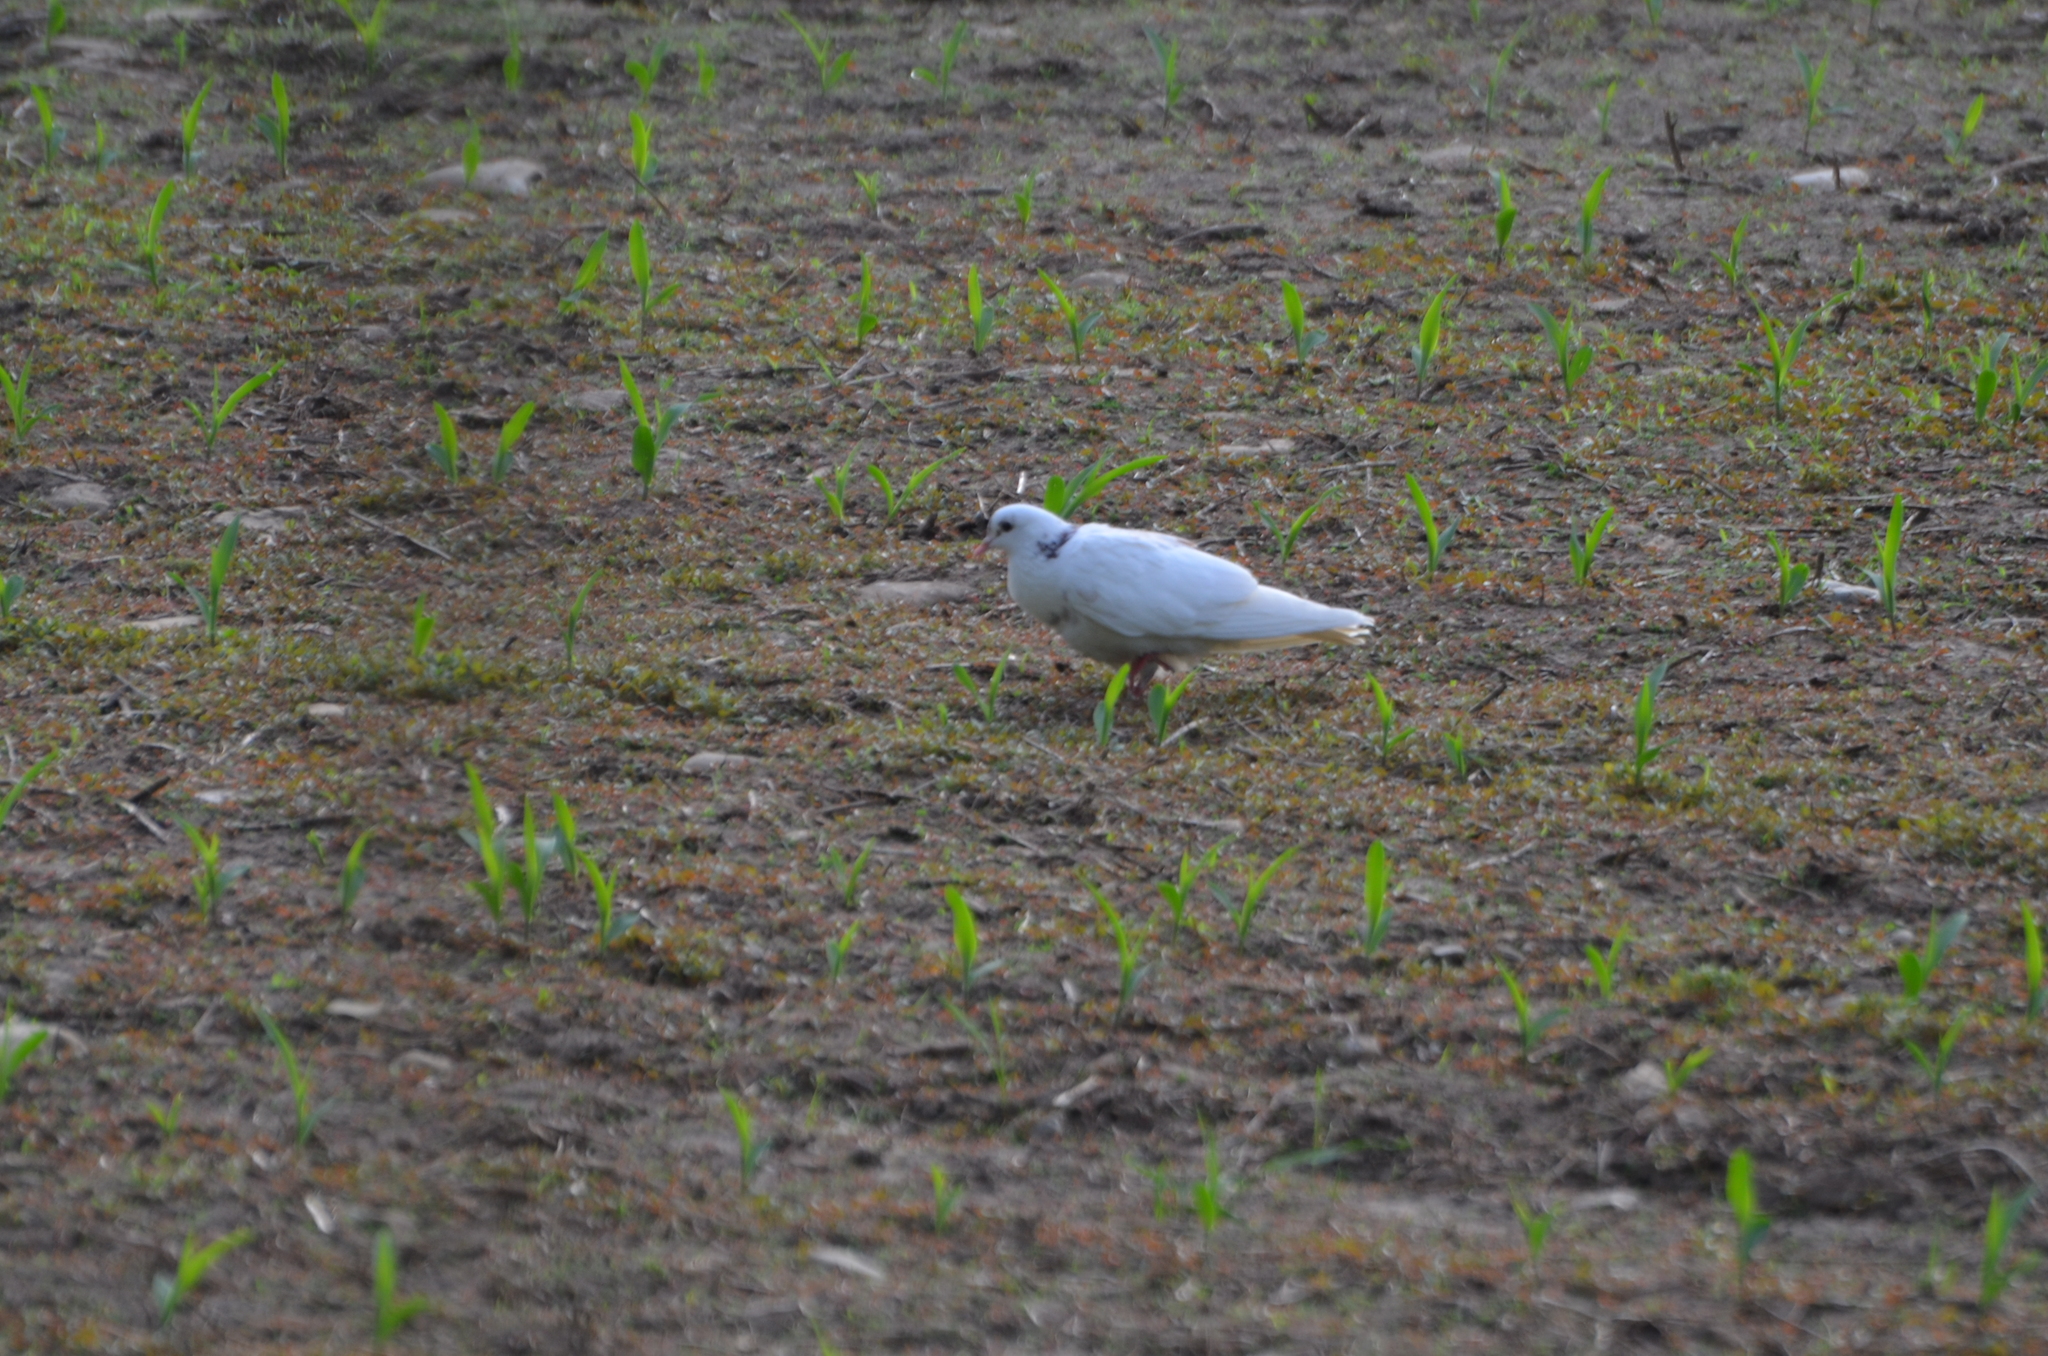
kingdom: Animalia
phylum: Chordata
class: Aves
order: Columbiformes
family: Columbidae
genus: Columba
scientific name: Columba livia
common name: Rock pigeon
